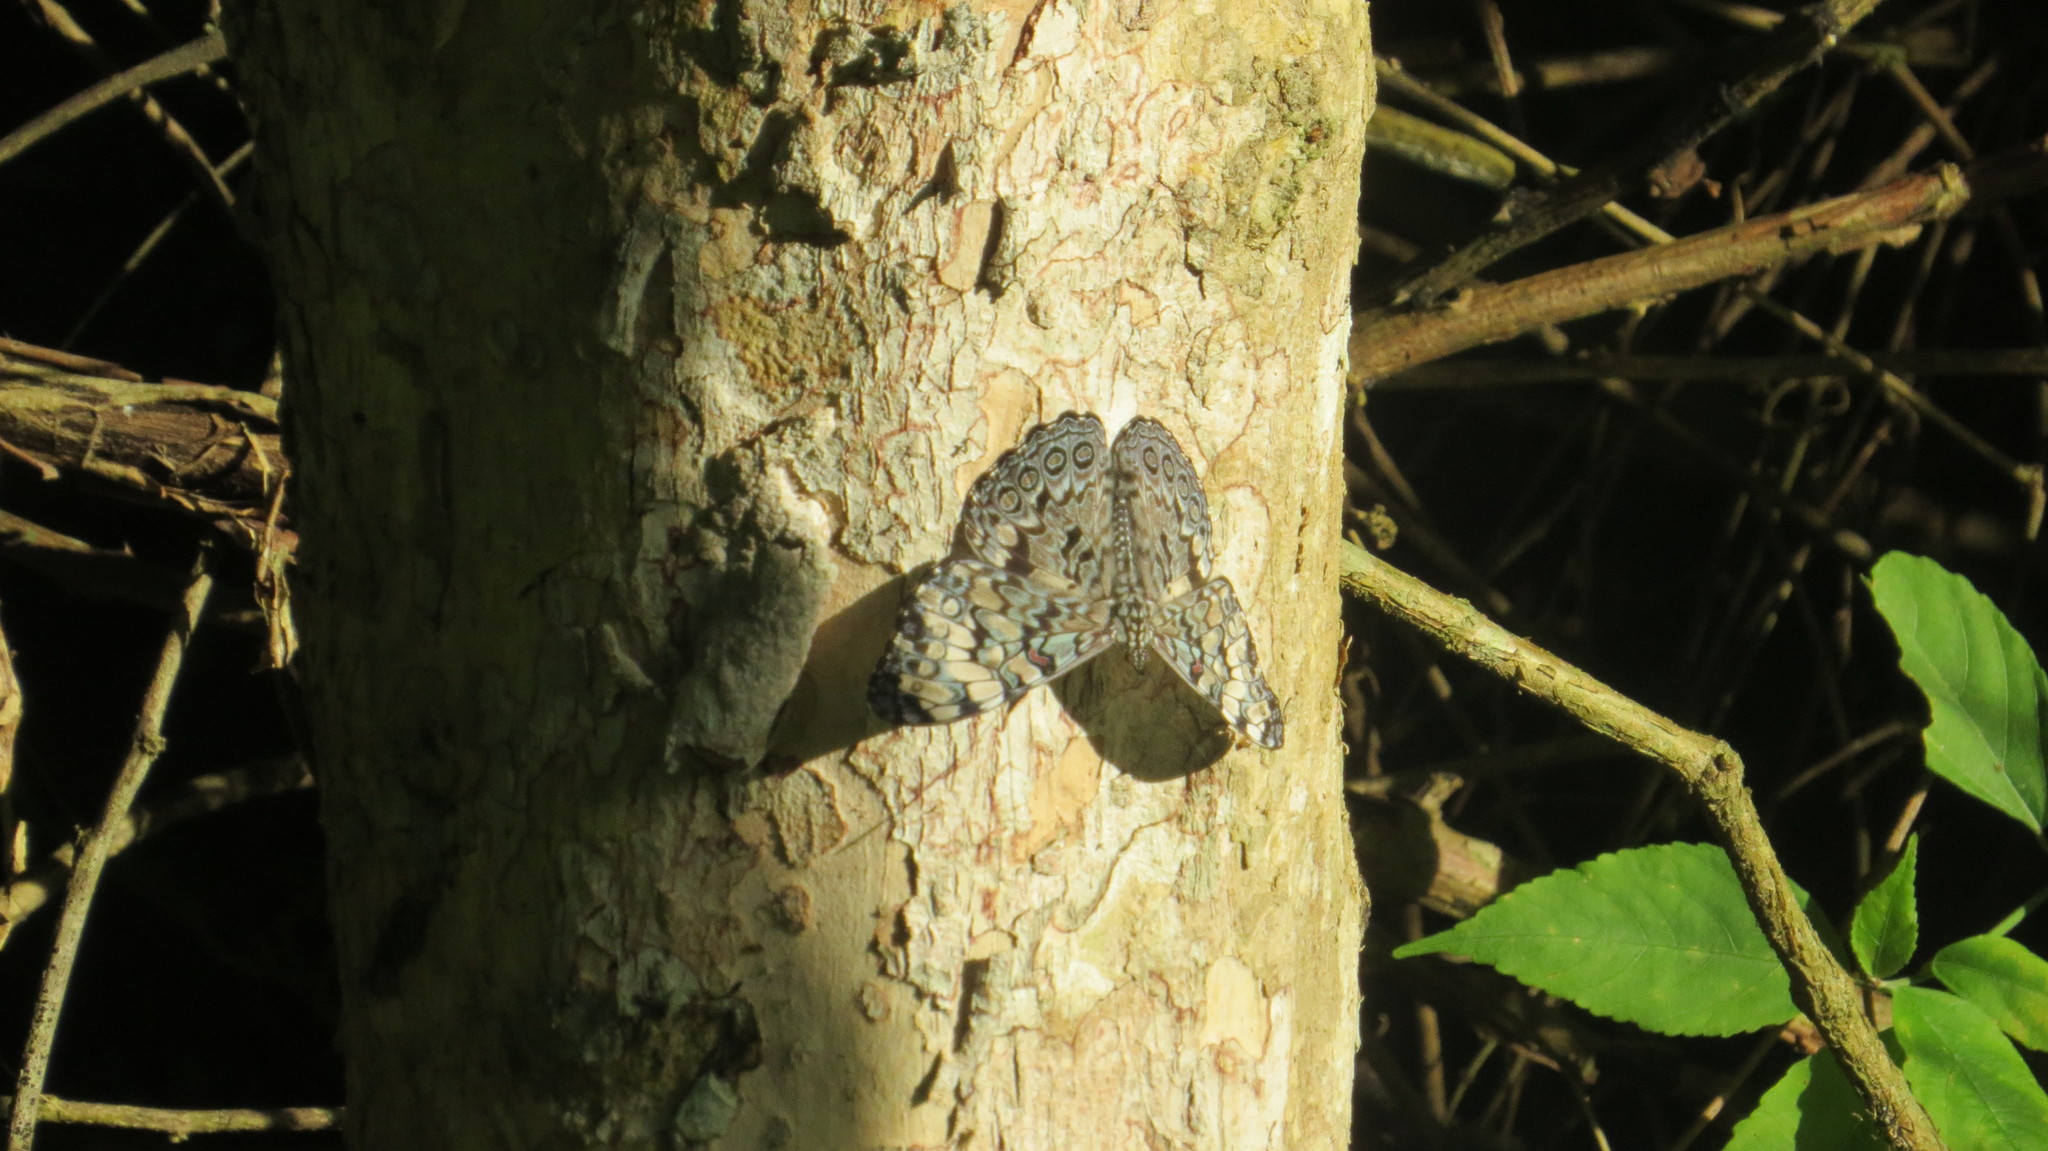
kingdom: Animalia
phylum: Arthropoda
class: Insecta
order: Lepidoptera
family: Nymphalidae
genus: Hamadryas
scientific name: Hamadryas guatemalena
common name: Guatemalan cracker
